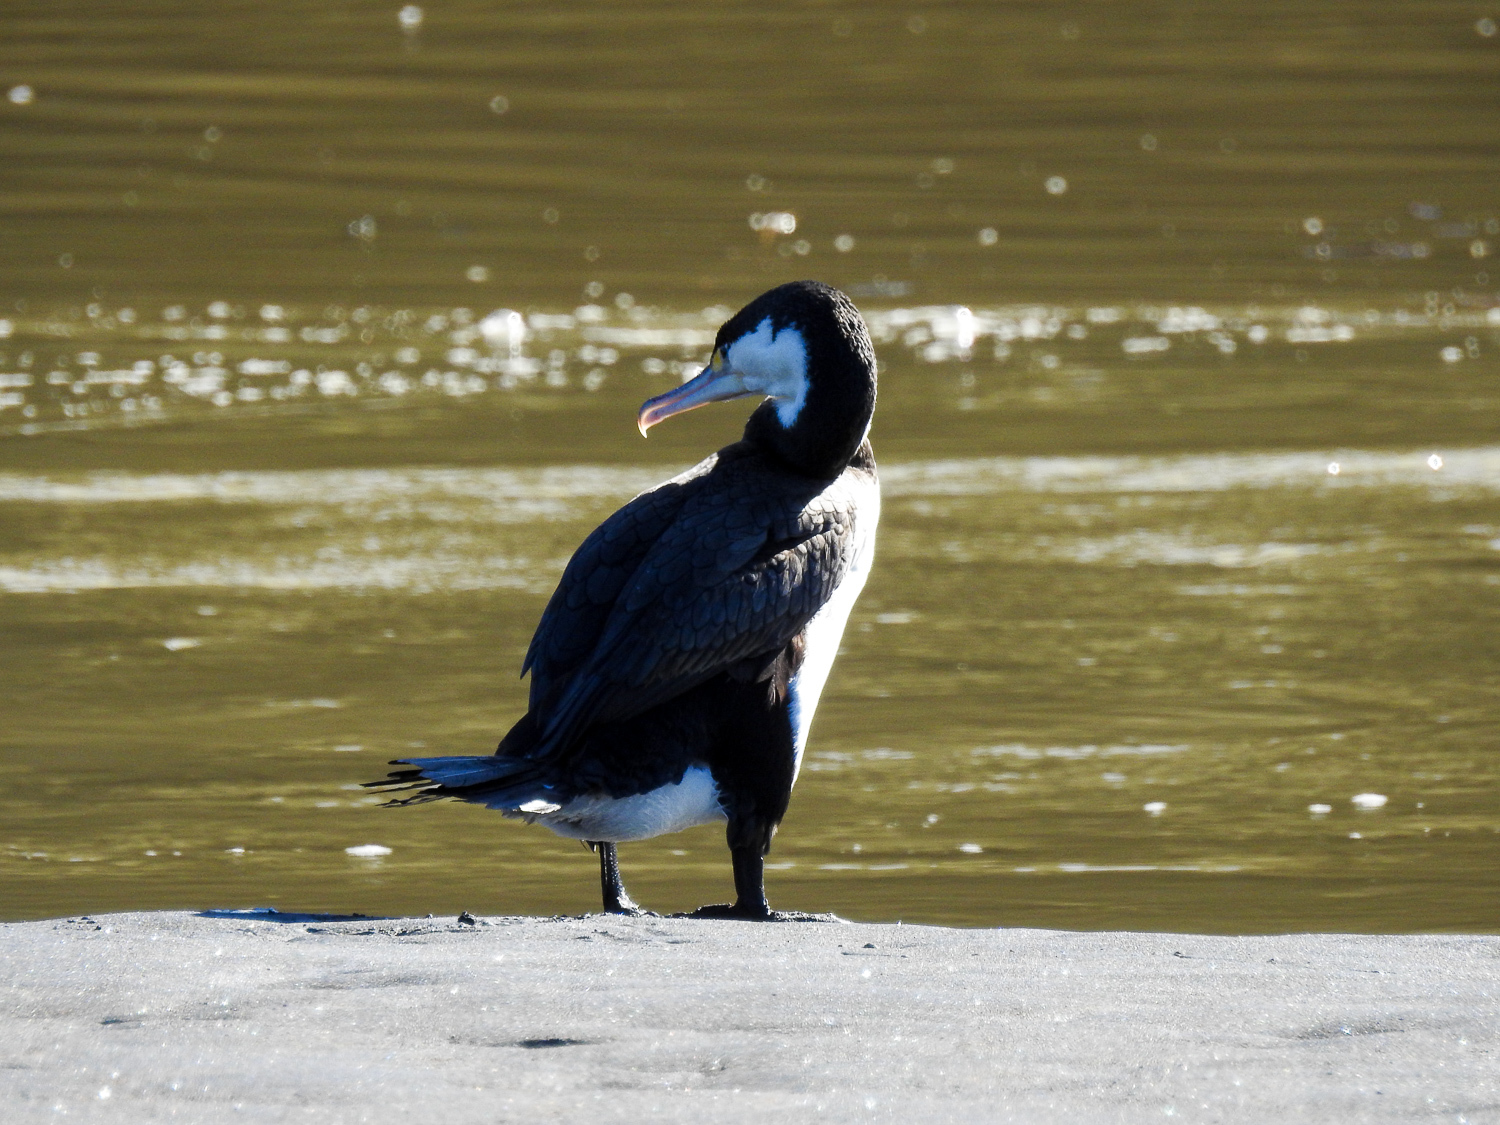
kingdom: Animalia
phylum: Chordata
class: Aves
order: Suliformes
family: Phalacrocoracidae
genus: Phalacrocorax
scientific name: Phalacrocorax varius
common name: Pied cormorant
